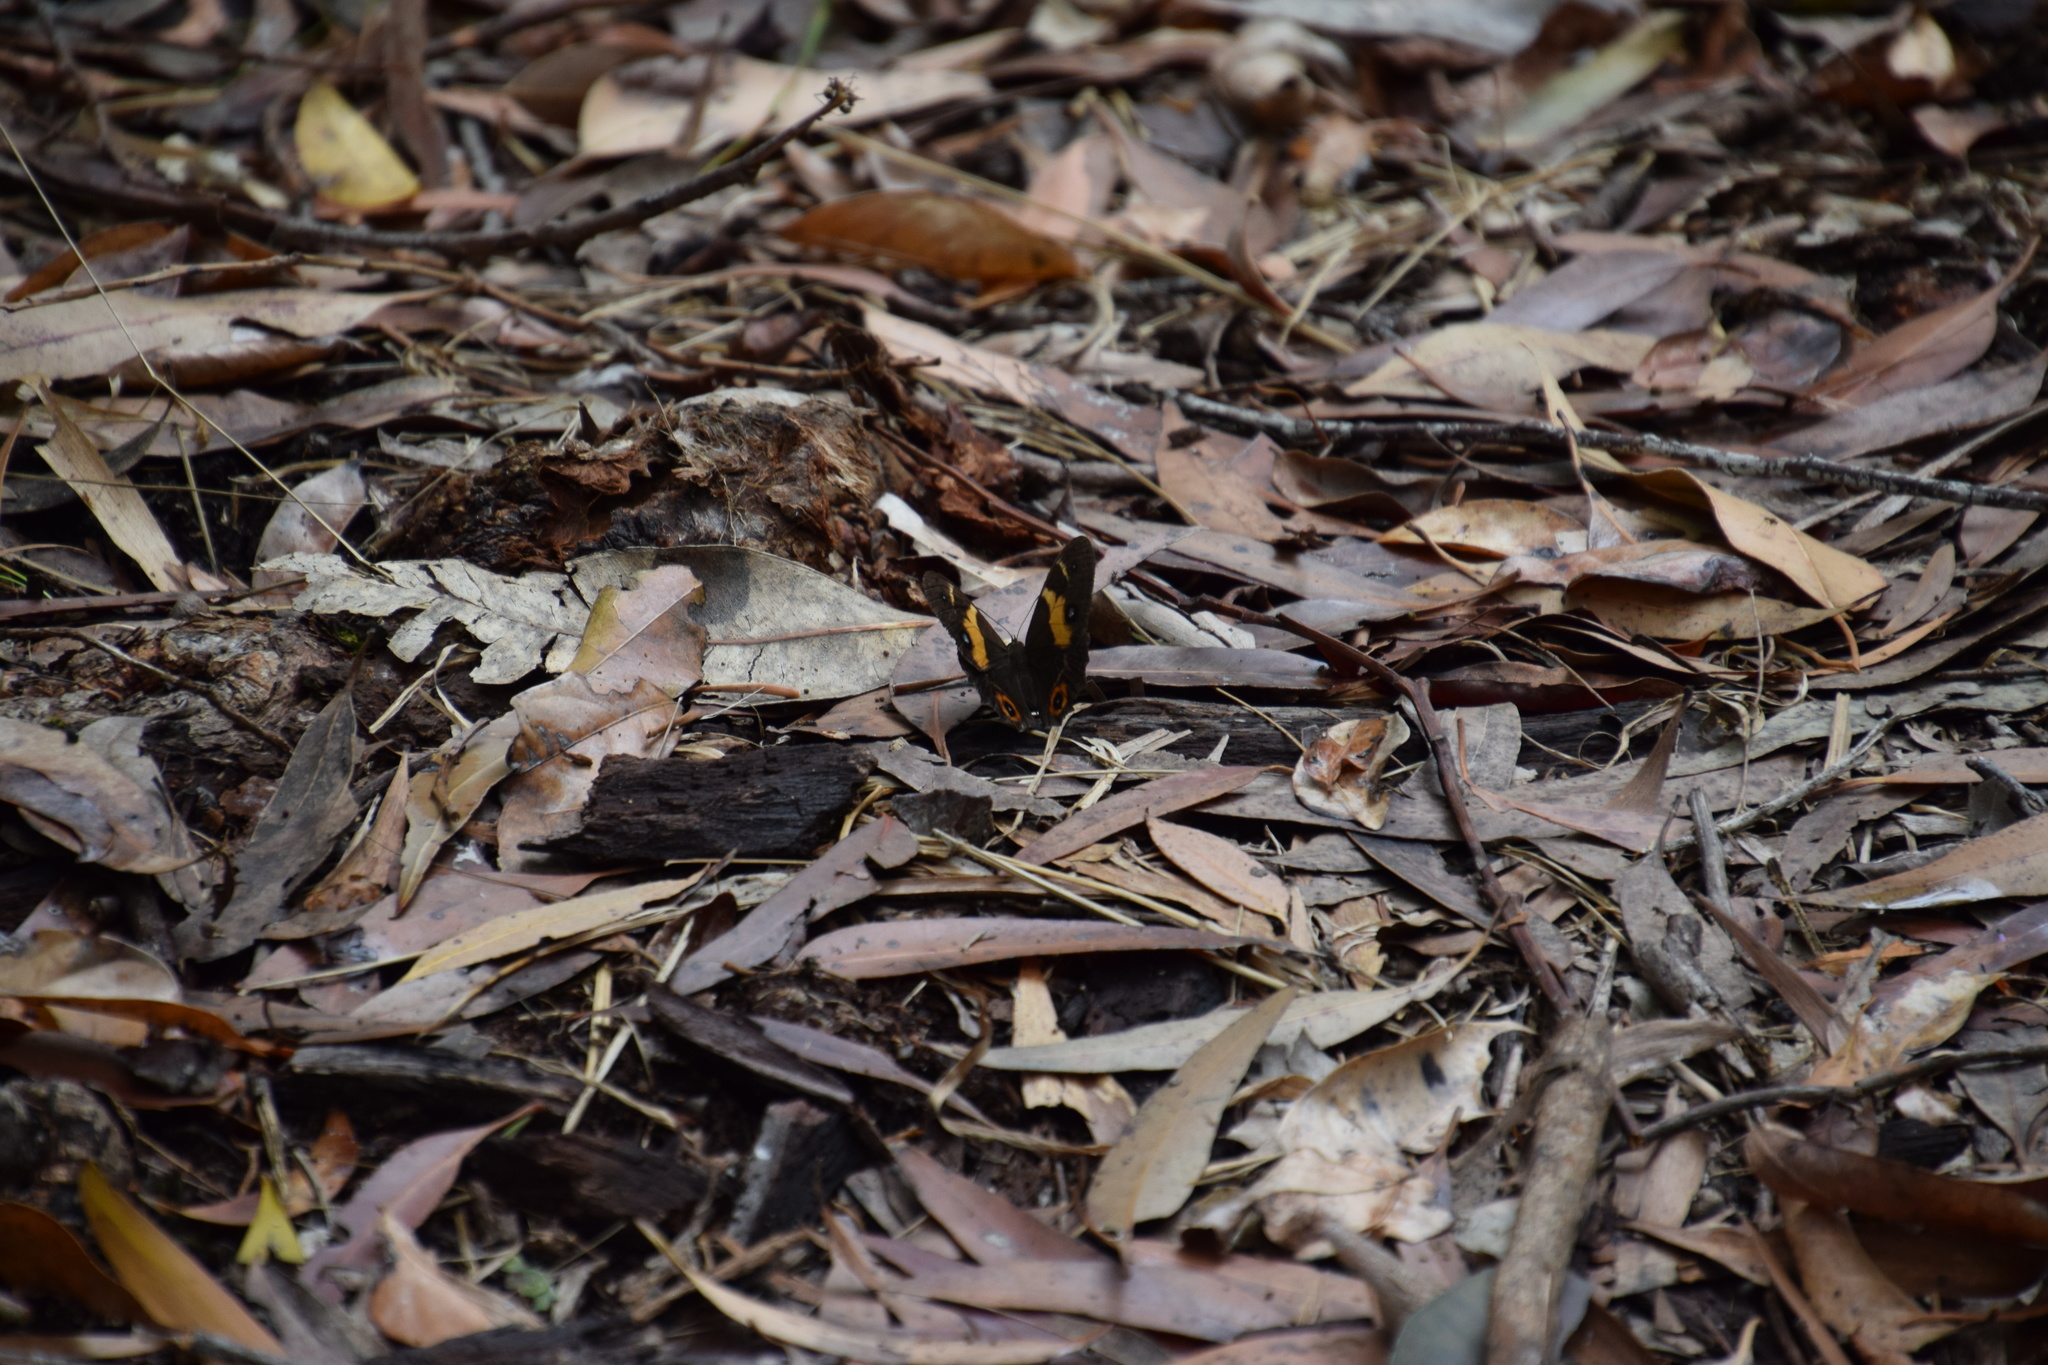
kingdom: Animalia
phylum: Arthropoda
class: Insecta
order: Lepidoptera
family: Nymphalidae
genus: Tisiphone
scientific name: Tisiphone abeona
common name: Swordgrass brown
